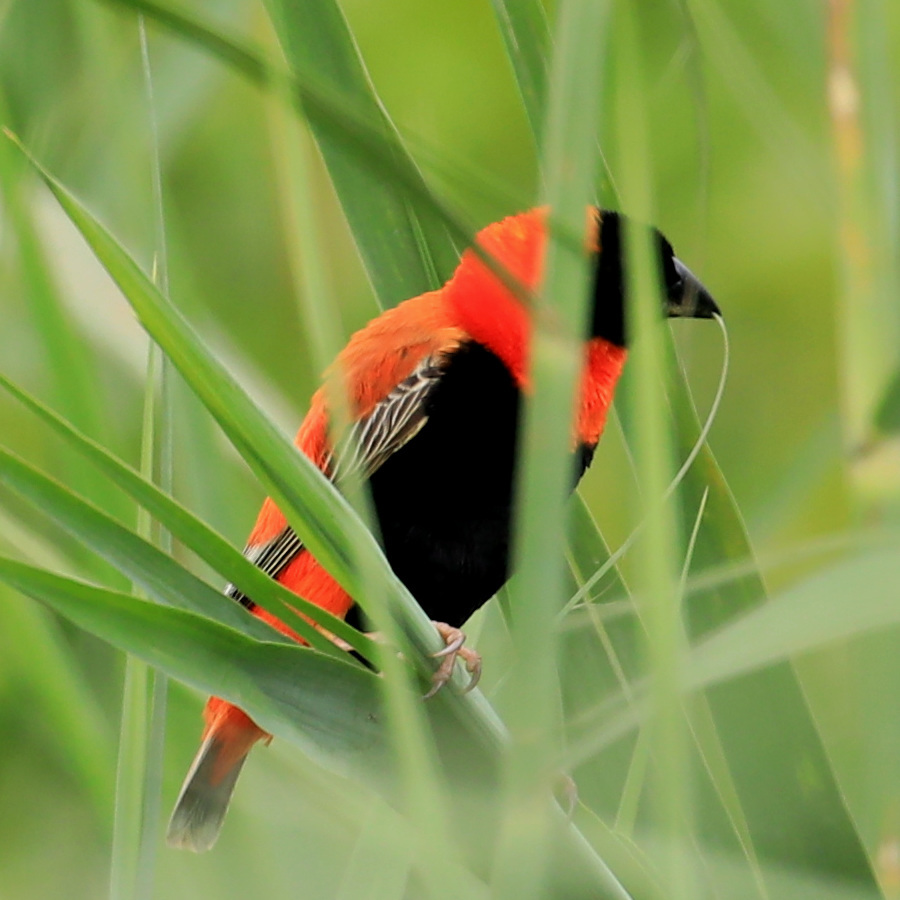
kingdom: Animalia
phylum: Chordata
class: Aves
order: Passeriformes
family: Ploceidae
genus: Euplectes
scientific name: Euplectes orix
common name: Southern red bishop
